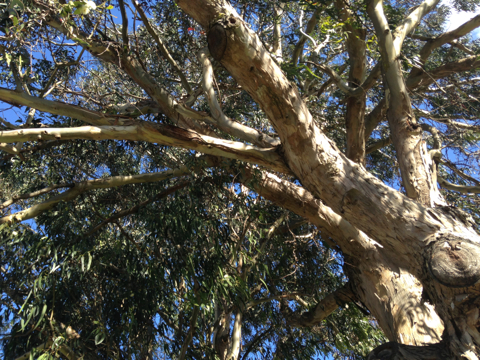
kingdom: Plantae
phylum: Tracheophyta
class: Magnoliopsida
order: Myrtales
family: Myrtaceae
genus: Eucalyptus
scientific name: Eucalyptus globulus
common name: Southern blue-gum
